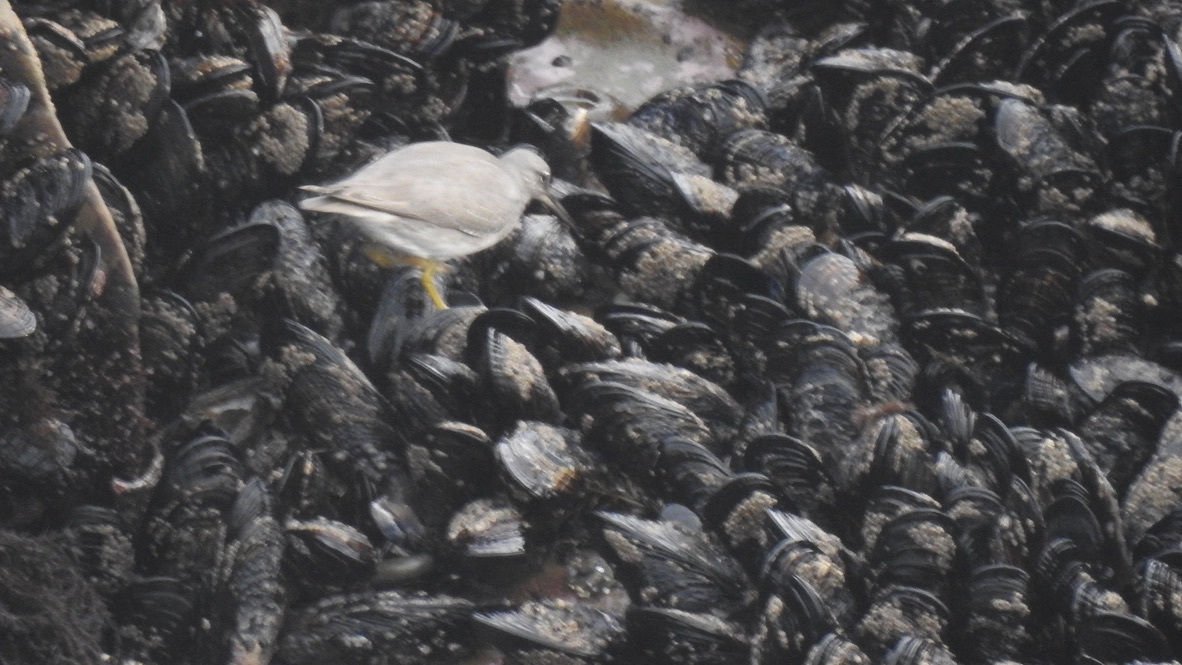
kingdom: Animalia
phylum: Chordata
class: Aves
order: Charadriiformes
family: Scolopacidae
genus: Tringa
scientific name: Tringa incana
